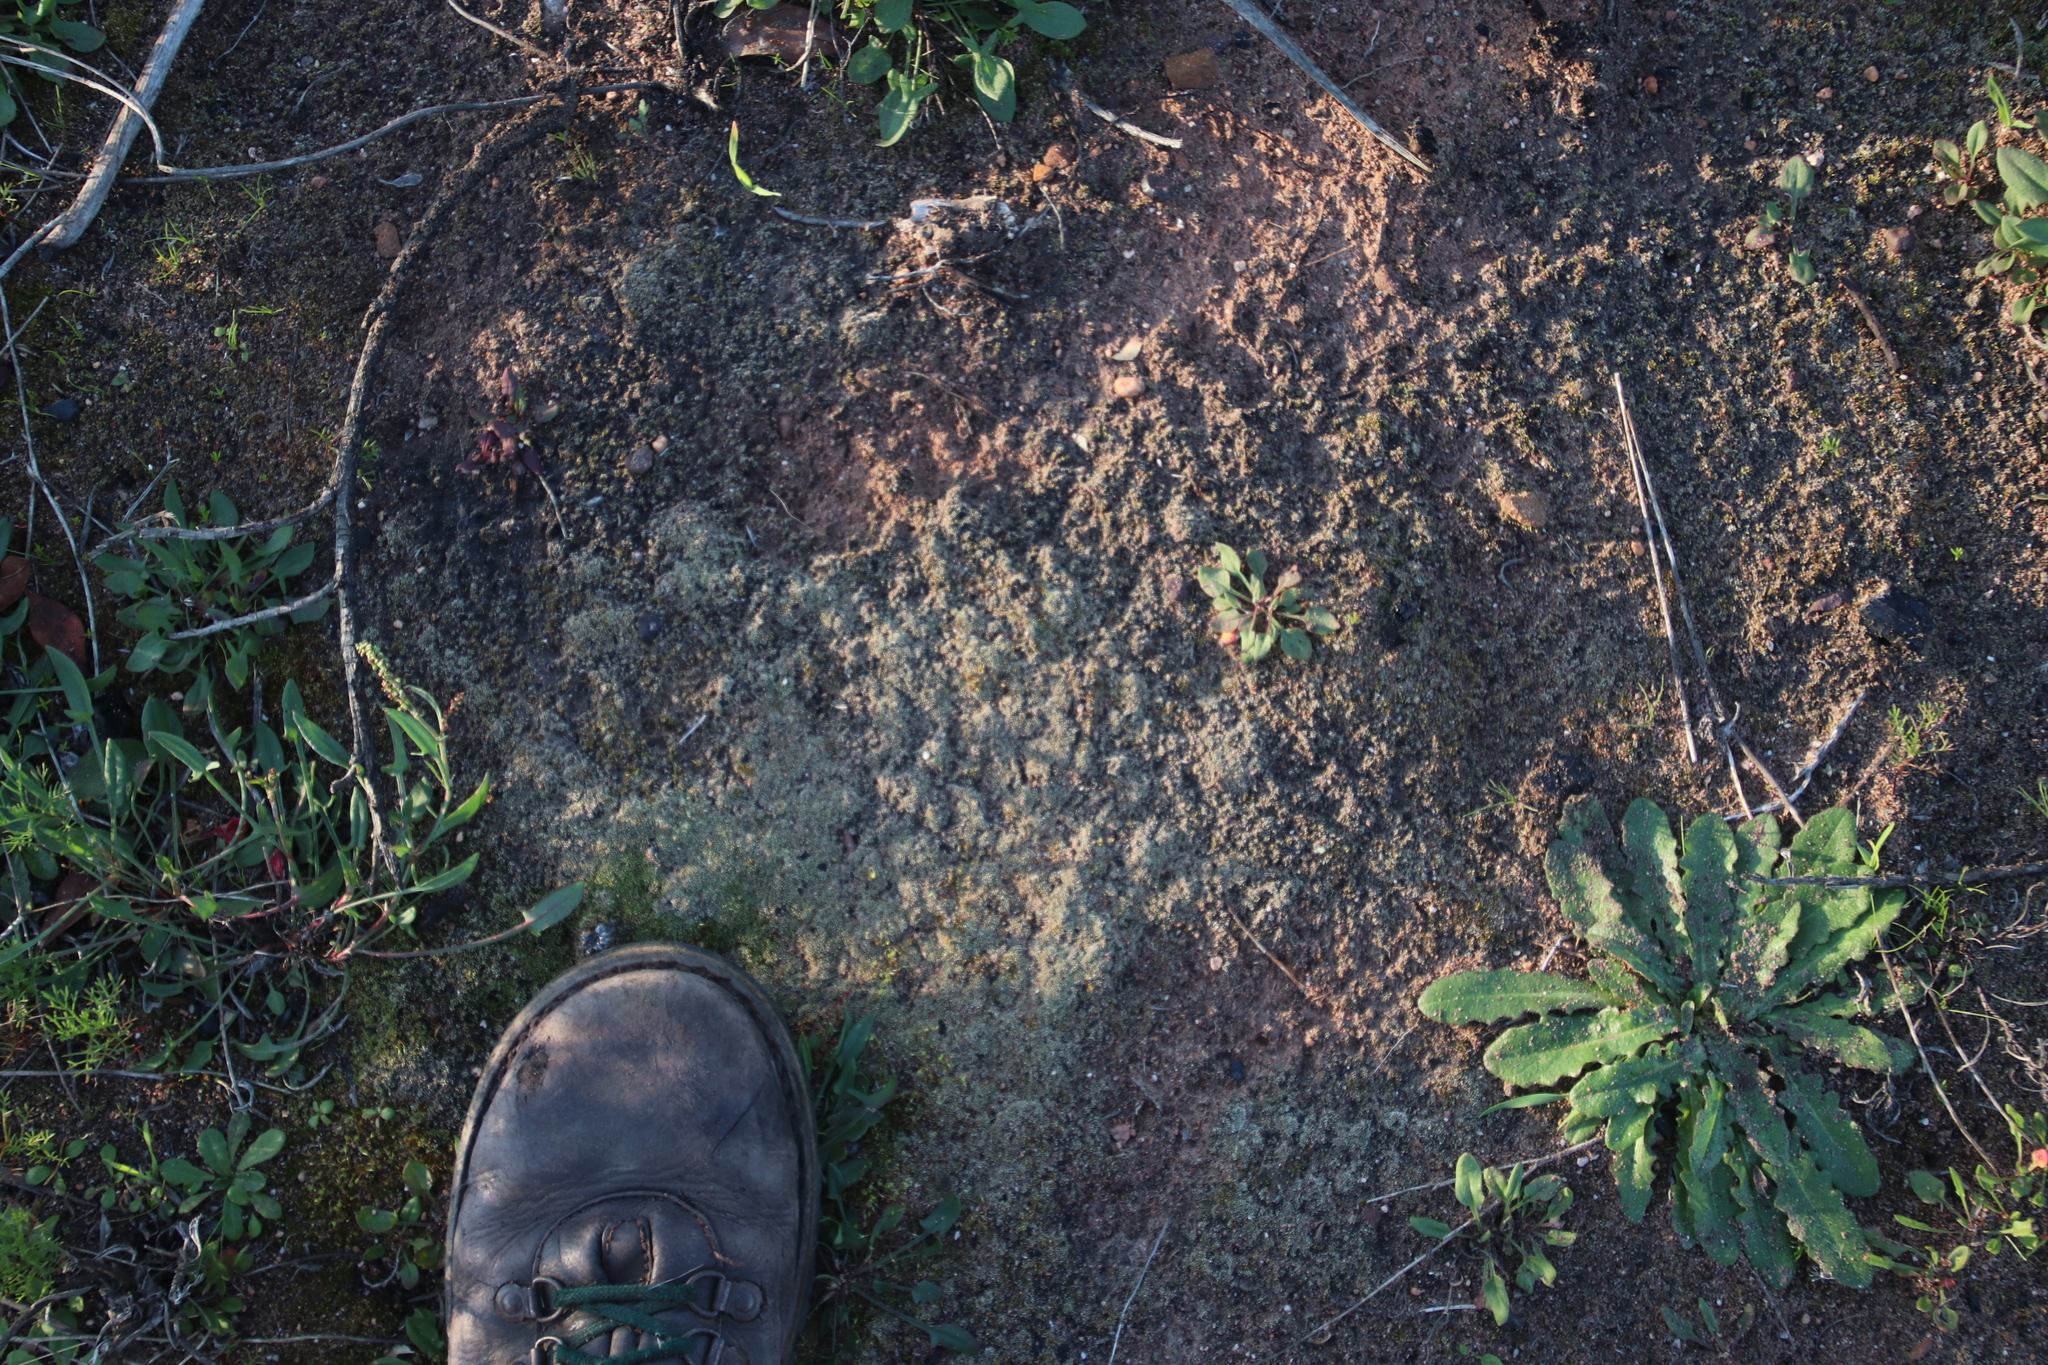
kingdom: Plantae
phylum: Bryophyta
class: Bryopsida
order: Bryales
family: Bryaceae
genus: Bryum
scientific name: Bryum argenteum
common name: Silver-moss
